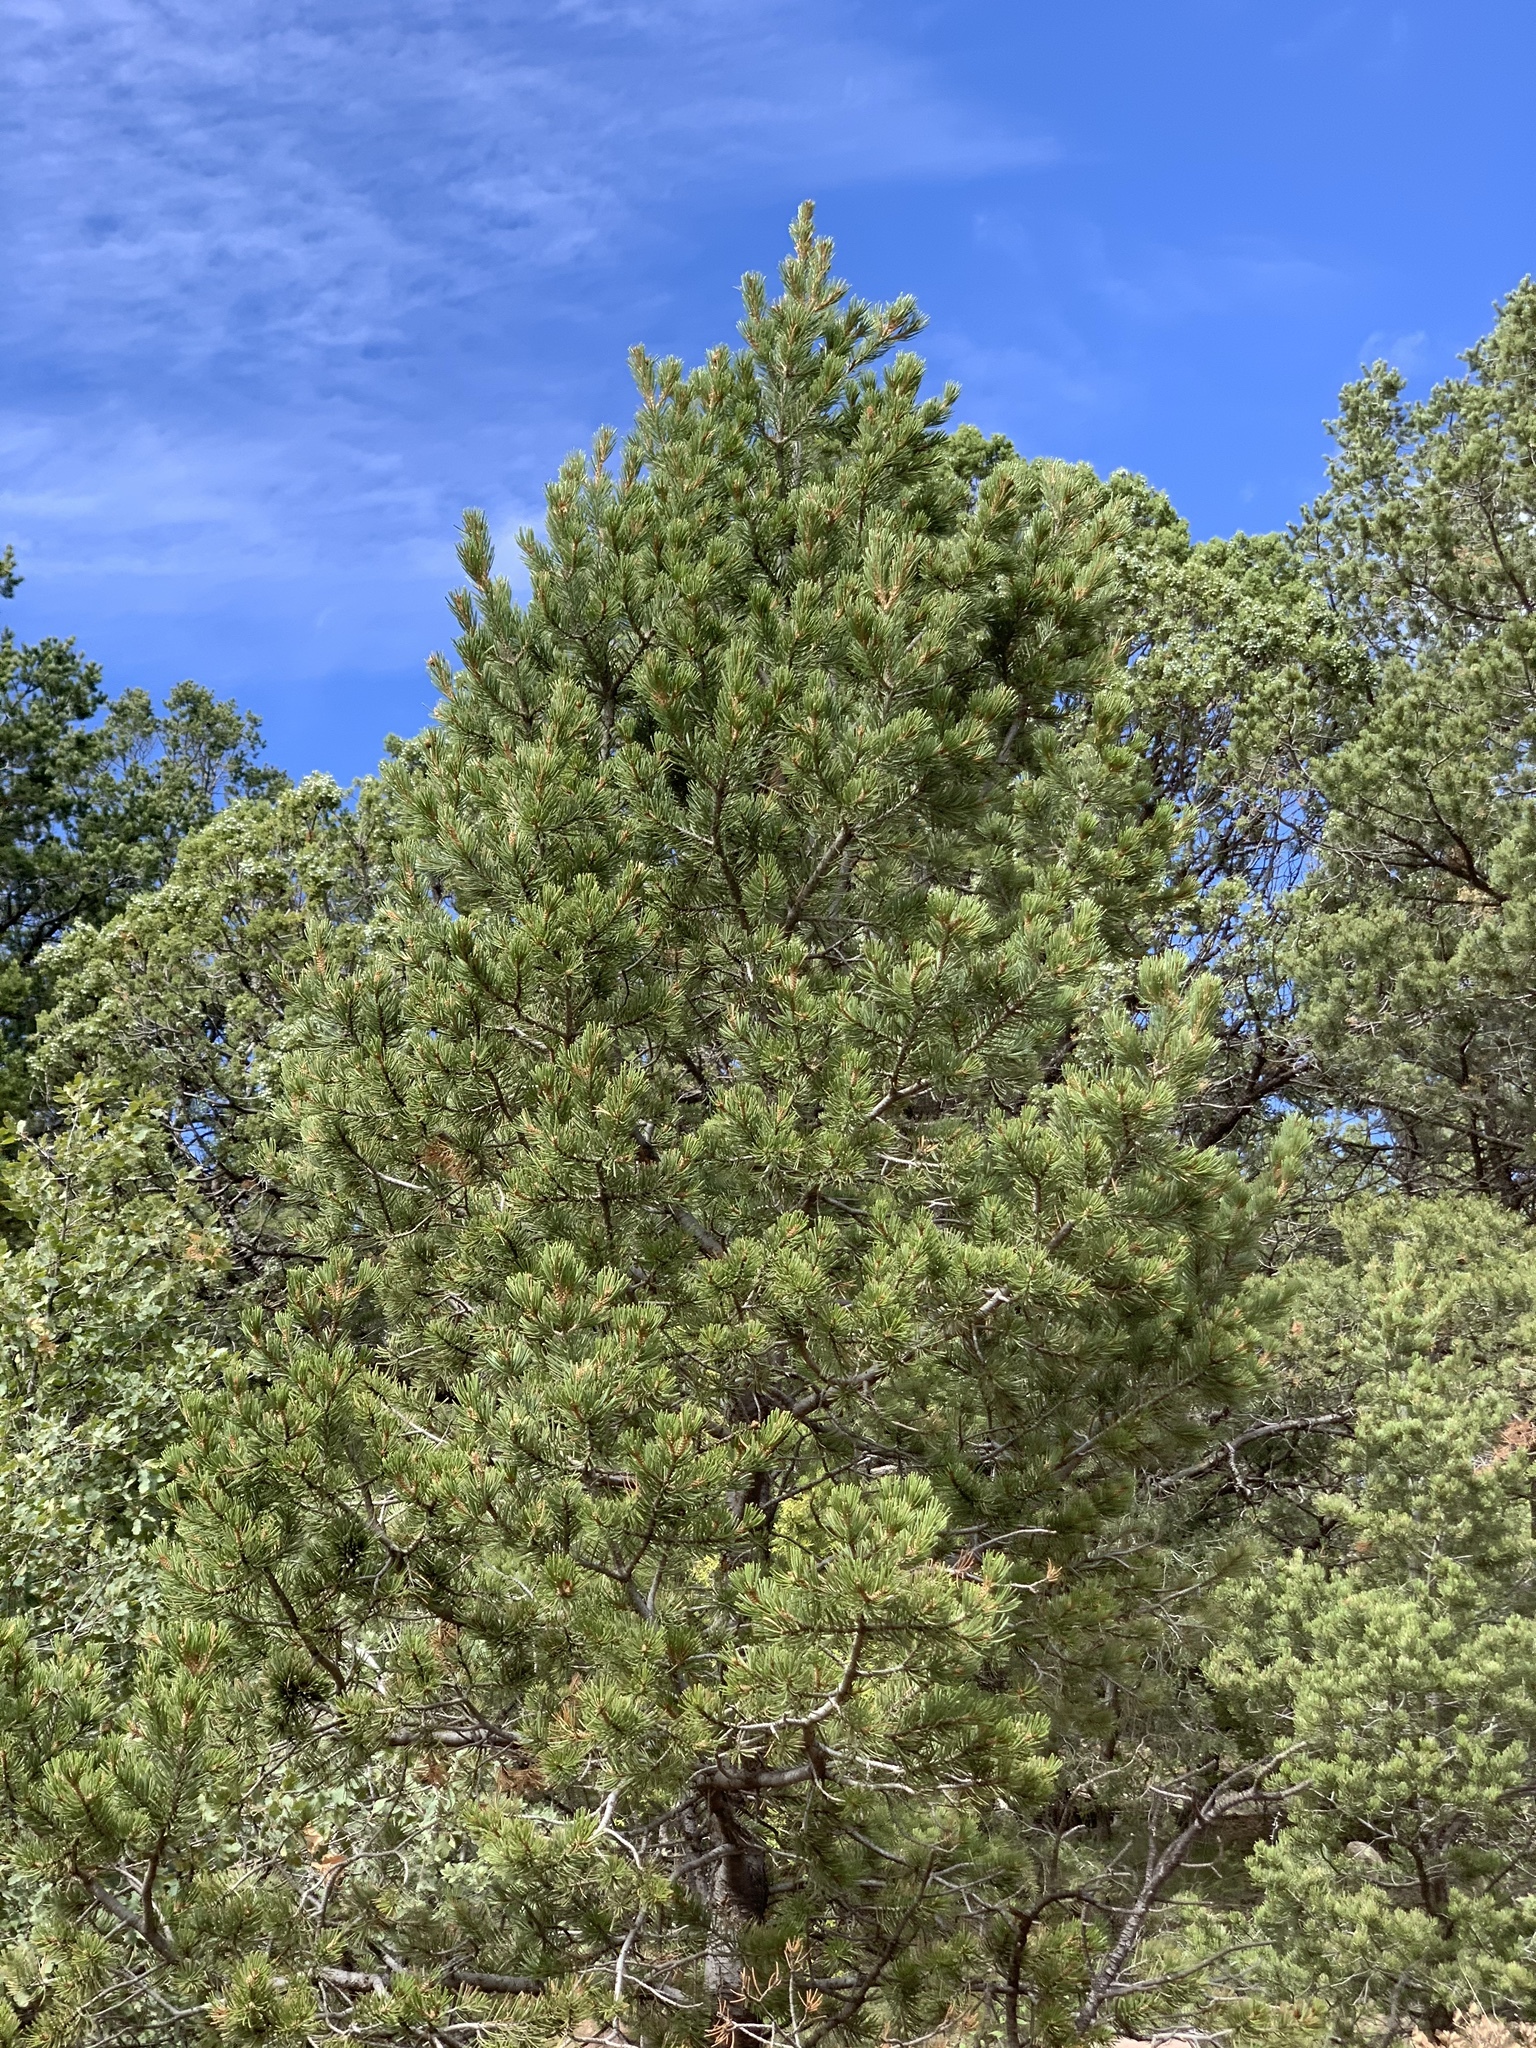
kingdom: Plantae
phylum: Tracheophyta
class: Pinopsida
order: Pinales
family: Pinaceae
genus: Pinus
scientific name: Pinus edulis
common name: Colorado pinyon
